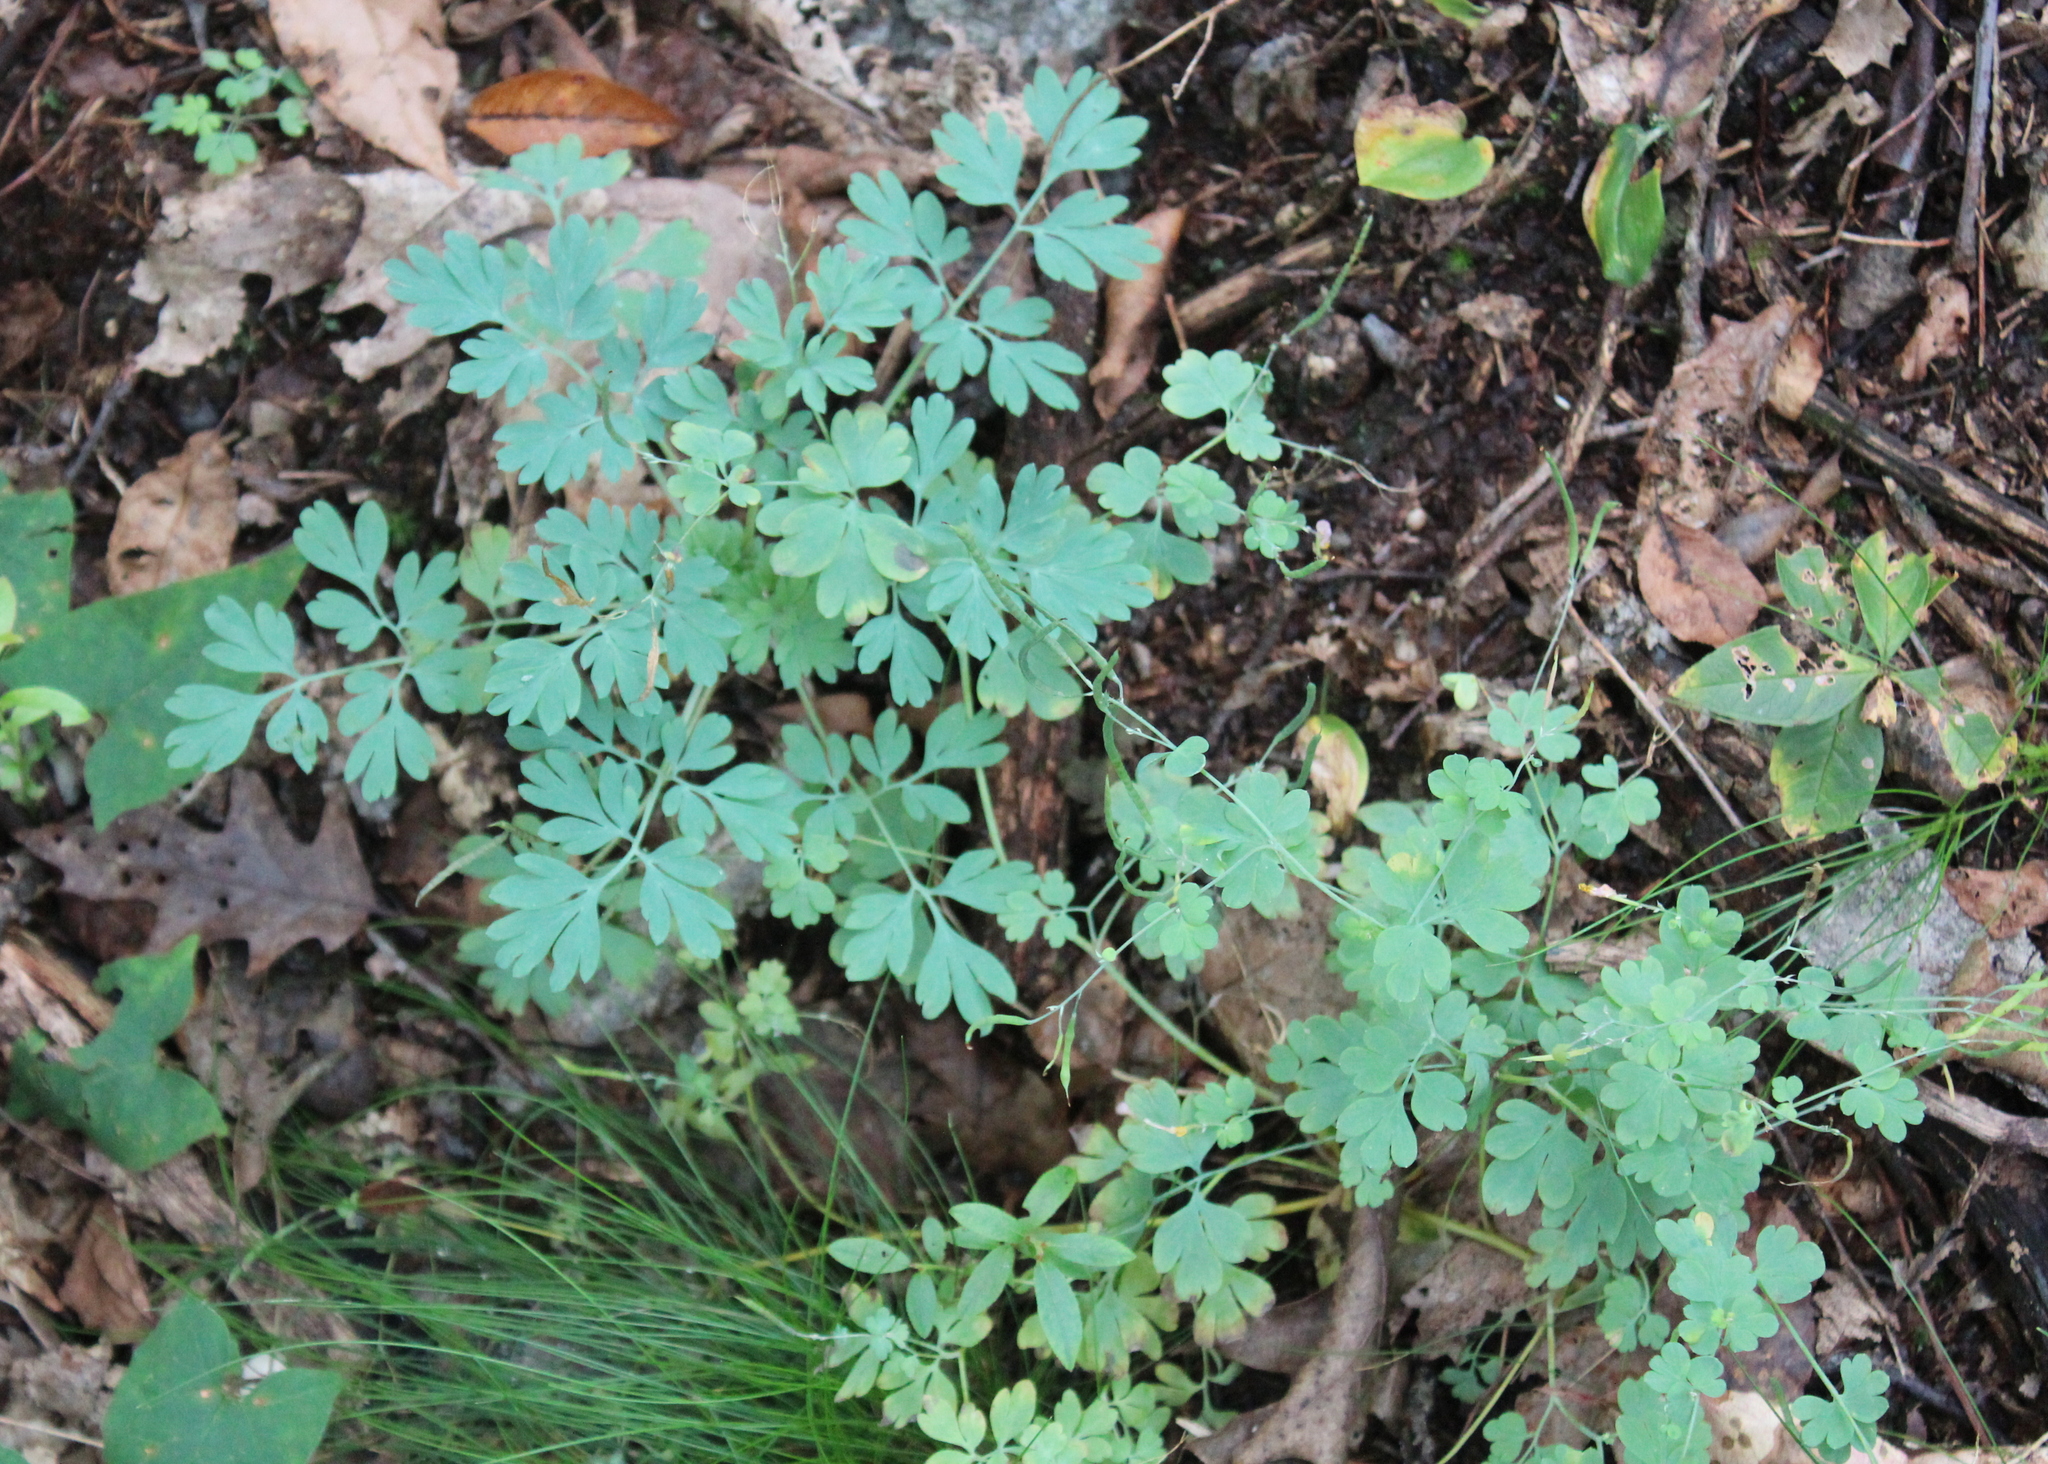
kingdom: Plantae
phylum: Tracheophyta
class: Magnoliopsida
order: Ranunculales
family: Papaveraceae
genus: Capnoides
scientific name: Capnoides sempervirens
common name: Rock harlequin
